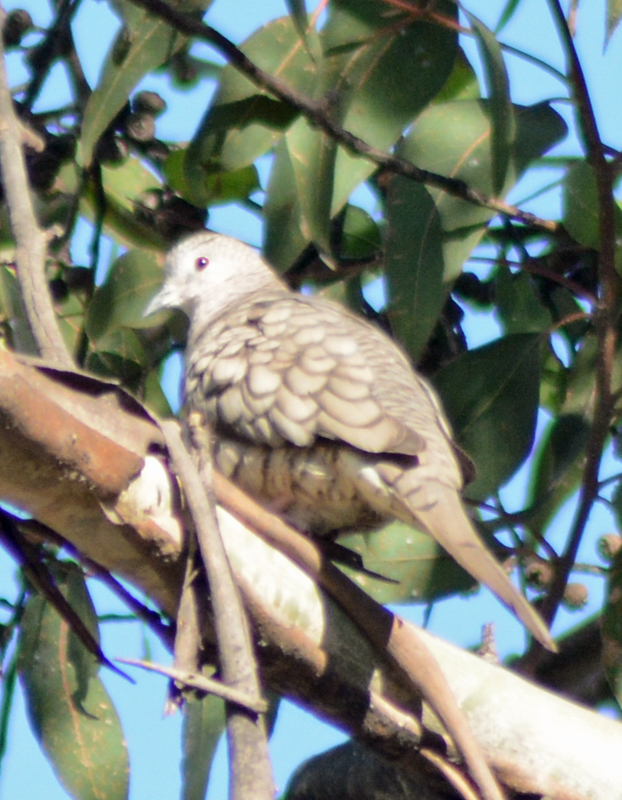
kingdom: Animalia
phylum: Chordata
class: Aves
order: Columbiformes
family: Columbidae
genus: Columbina
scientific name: Columbina inca
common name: Inca dove
